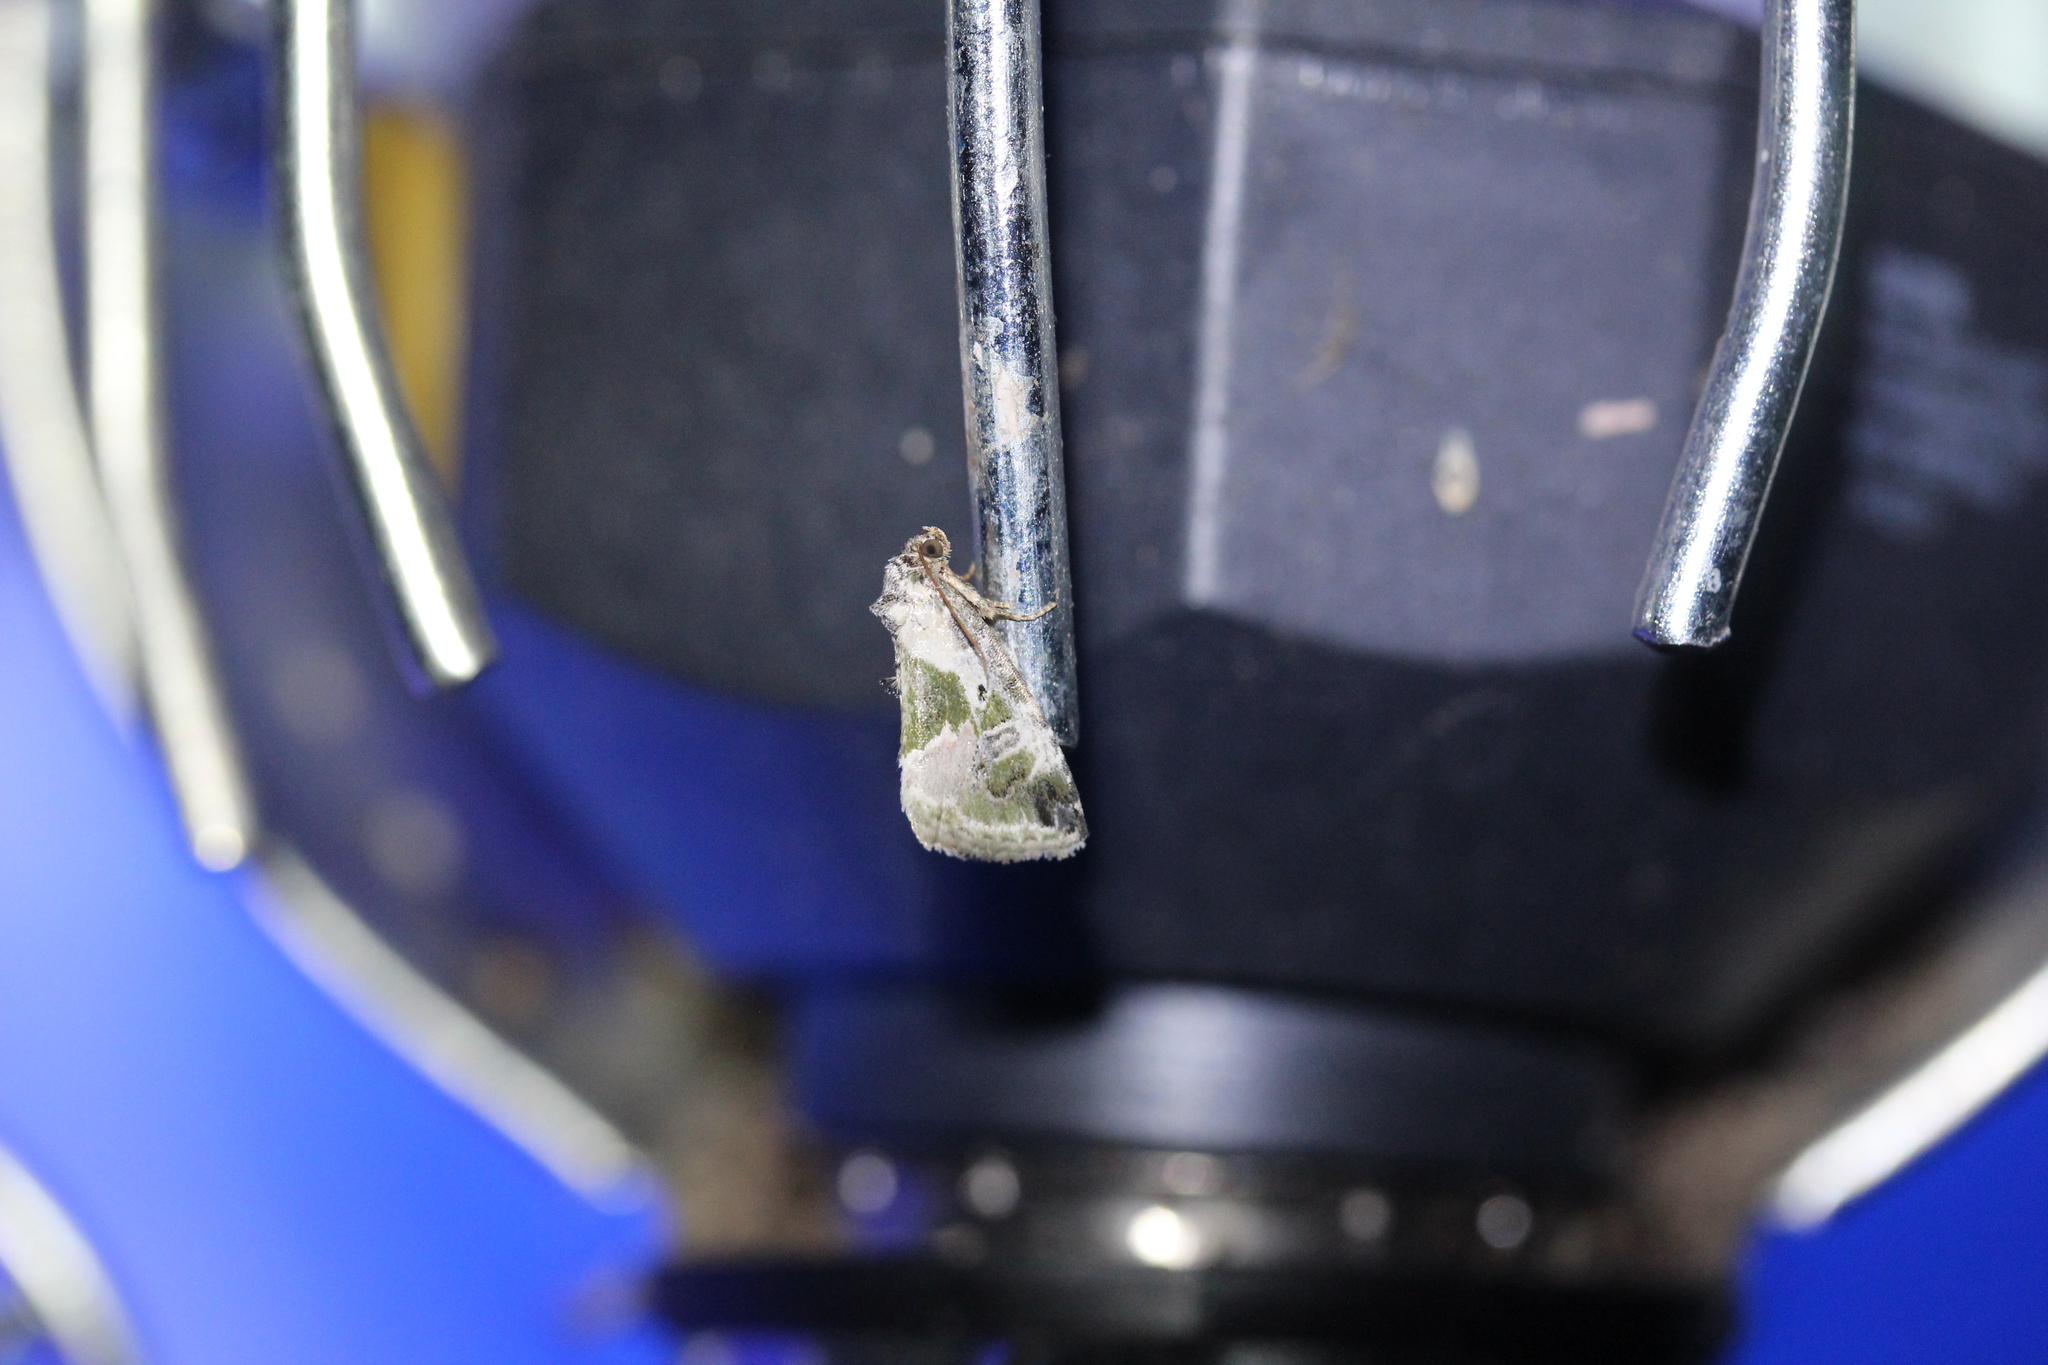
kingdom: Animalia
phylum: Arthropoda
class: Insecta
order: Lepidoptera
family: Noctuidae
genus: Maliattha
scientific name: Maliattha synochitis
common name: Black-dotted glyph
